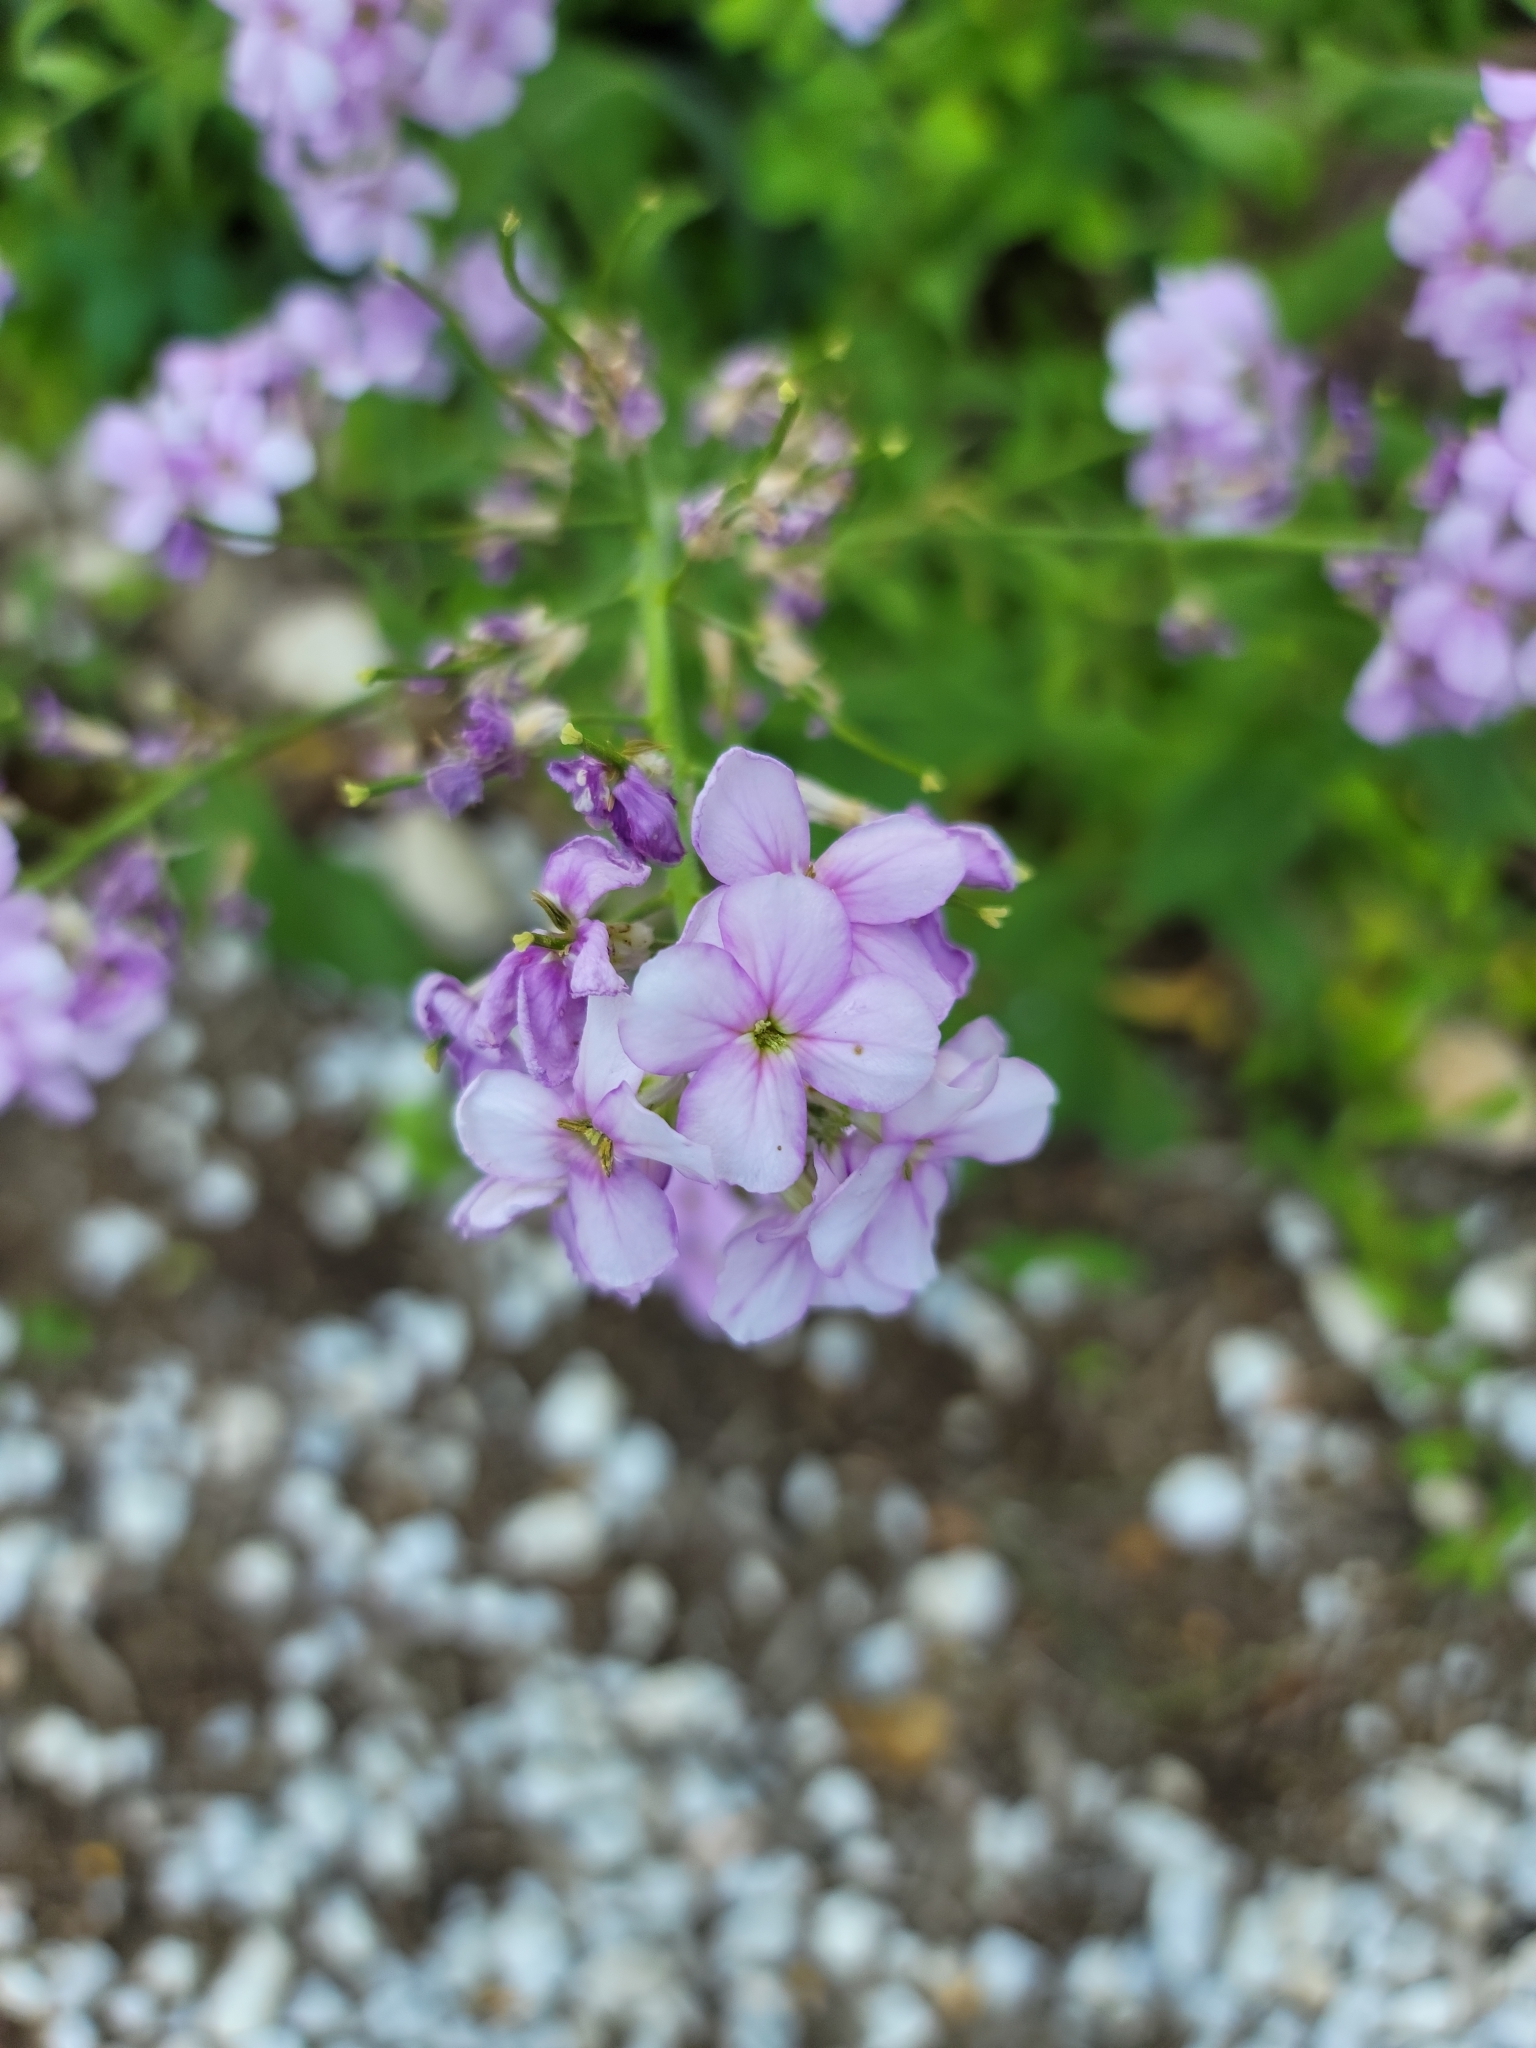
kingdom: Plantae
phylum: Tracheophyta
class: Magnoliopsida
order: Brassicales
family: Brassicaceae
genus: Hesperis
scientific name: Hesperis matronalis
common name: Dame's-violet
